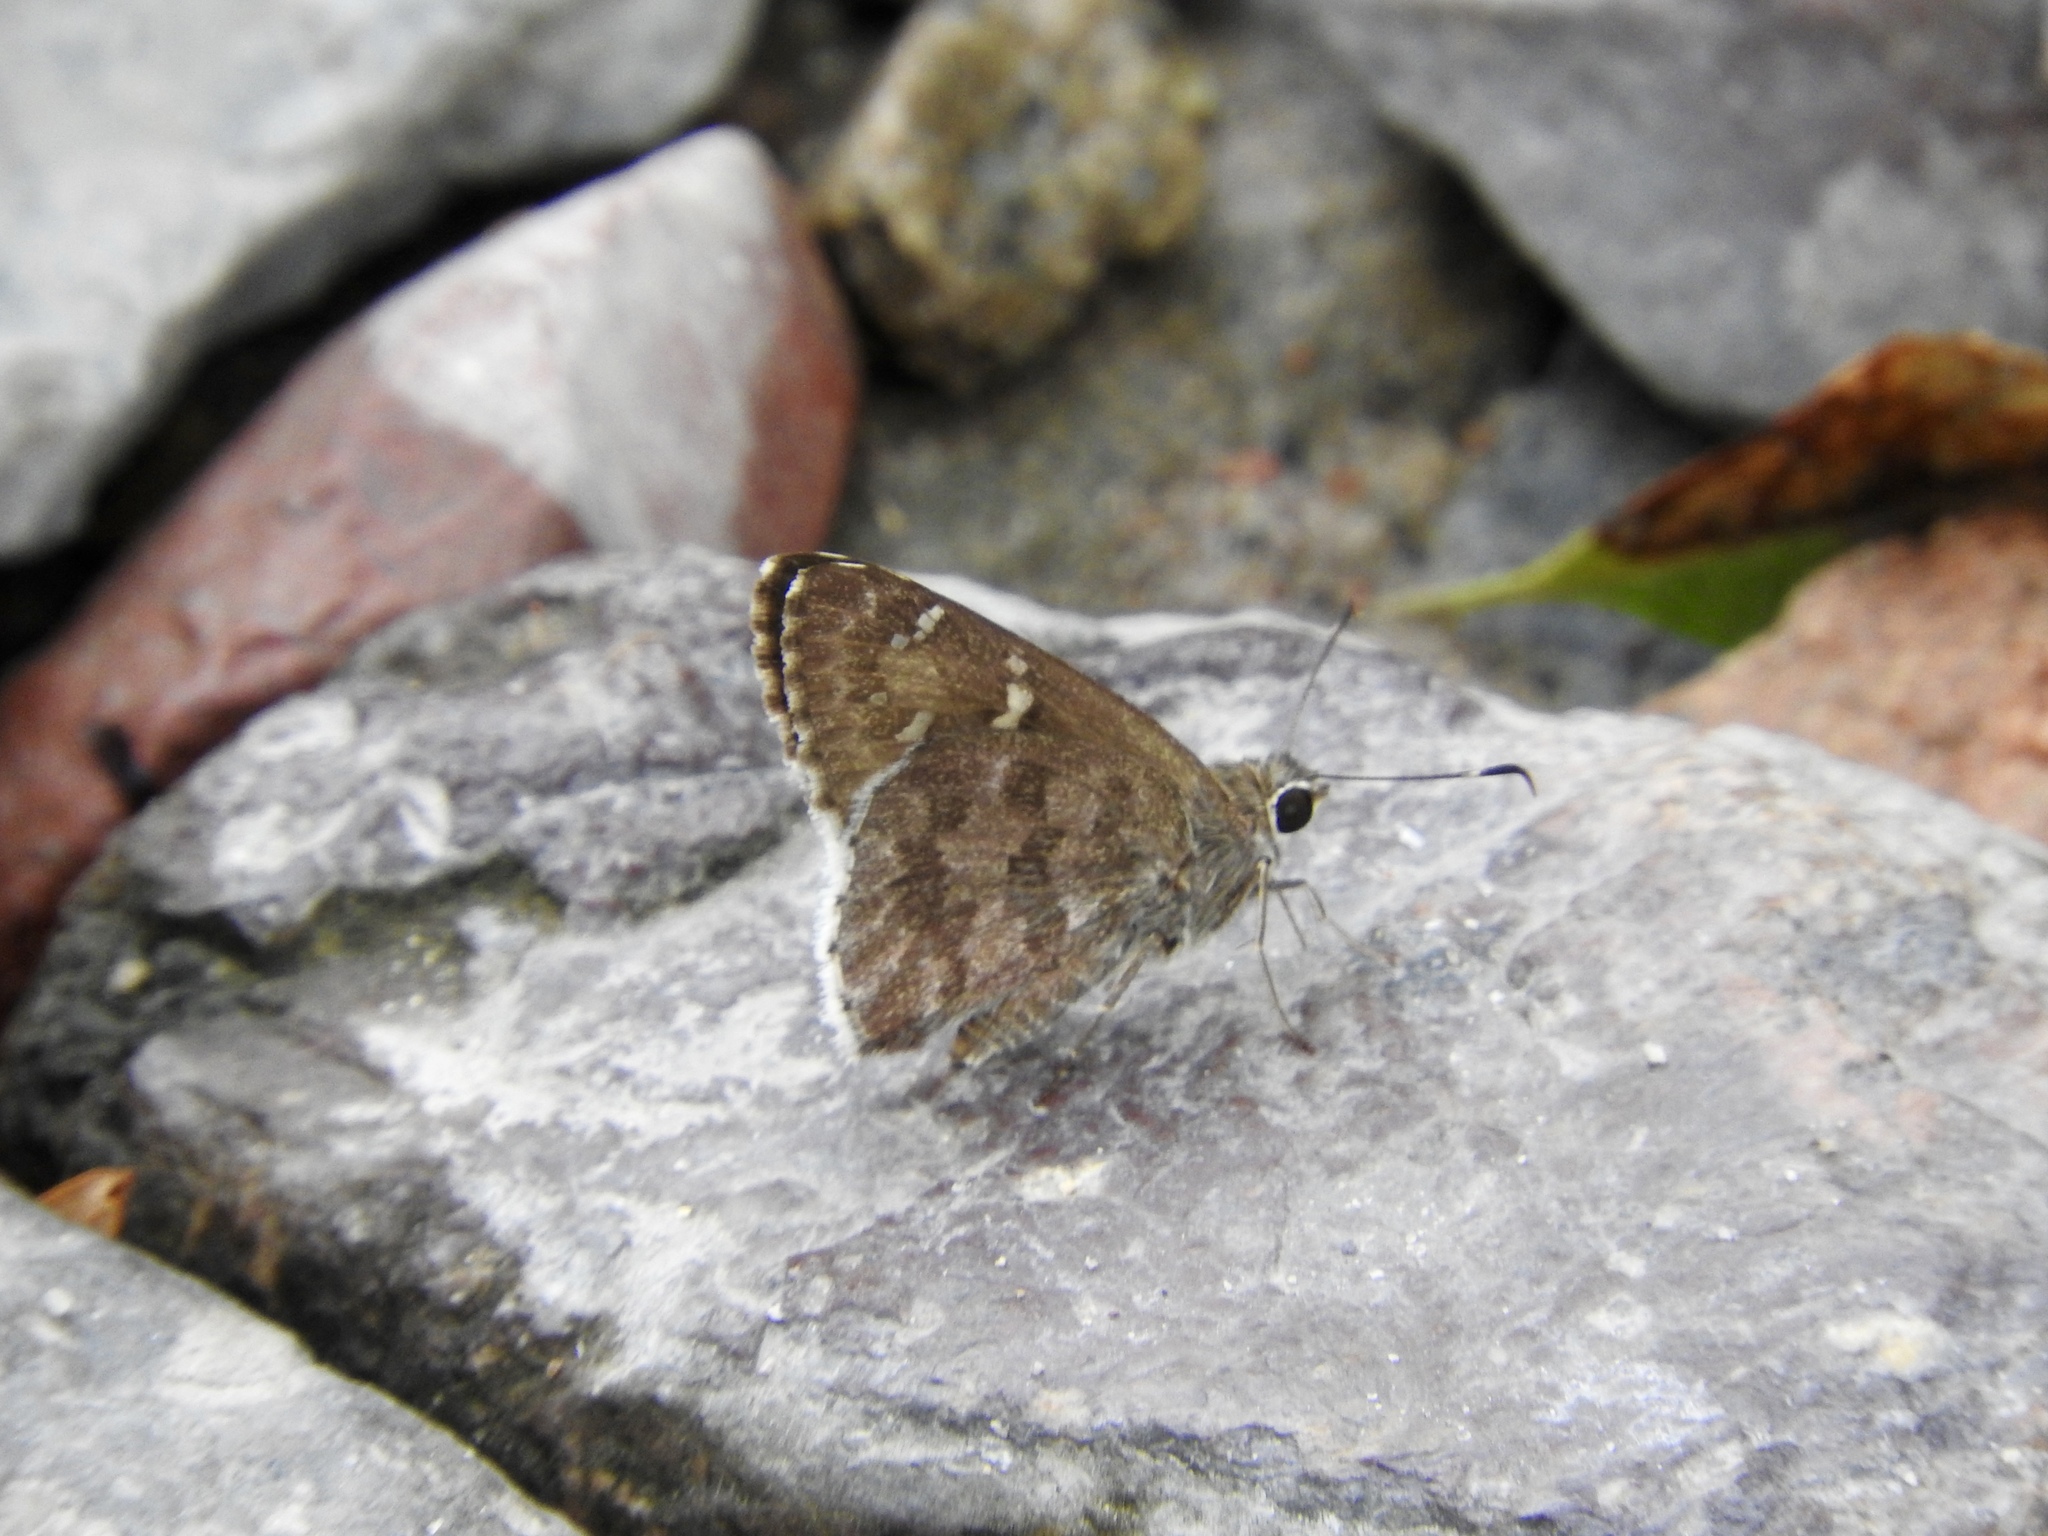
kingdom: Animalia
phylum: Arthropoda
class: Insecta
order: Lepidoptera
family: Hesperiidae
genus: Cogia
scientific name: Cogia hippalus
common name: Acacia skipper
